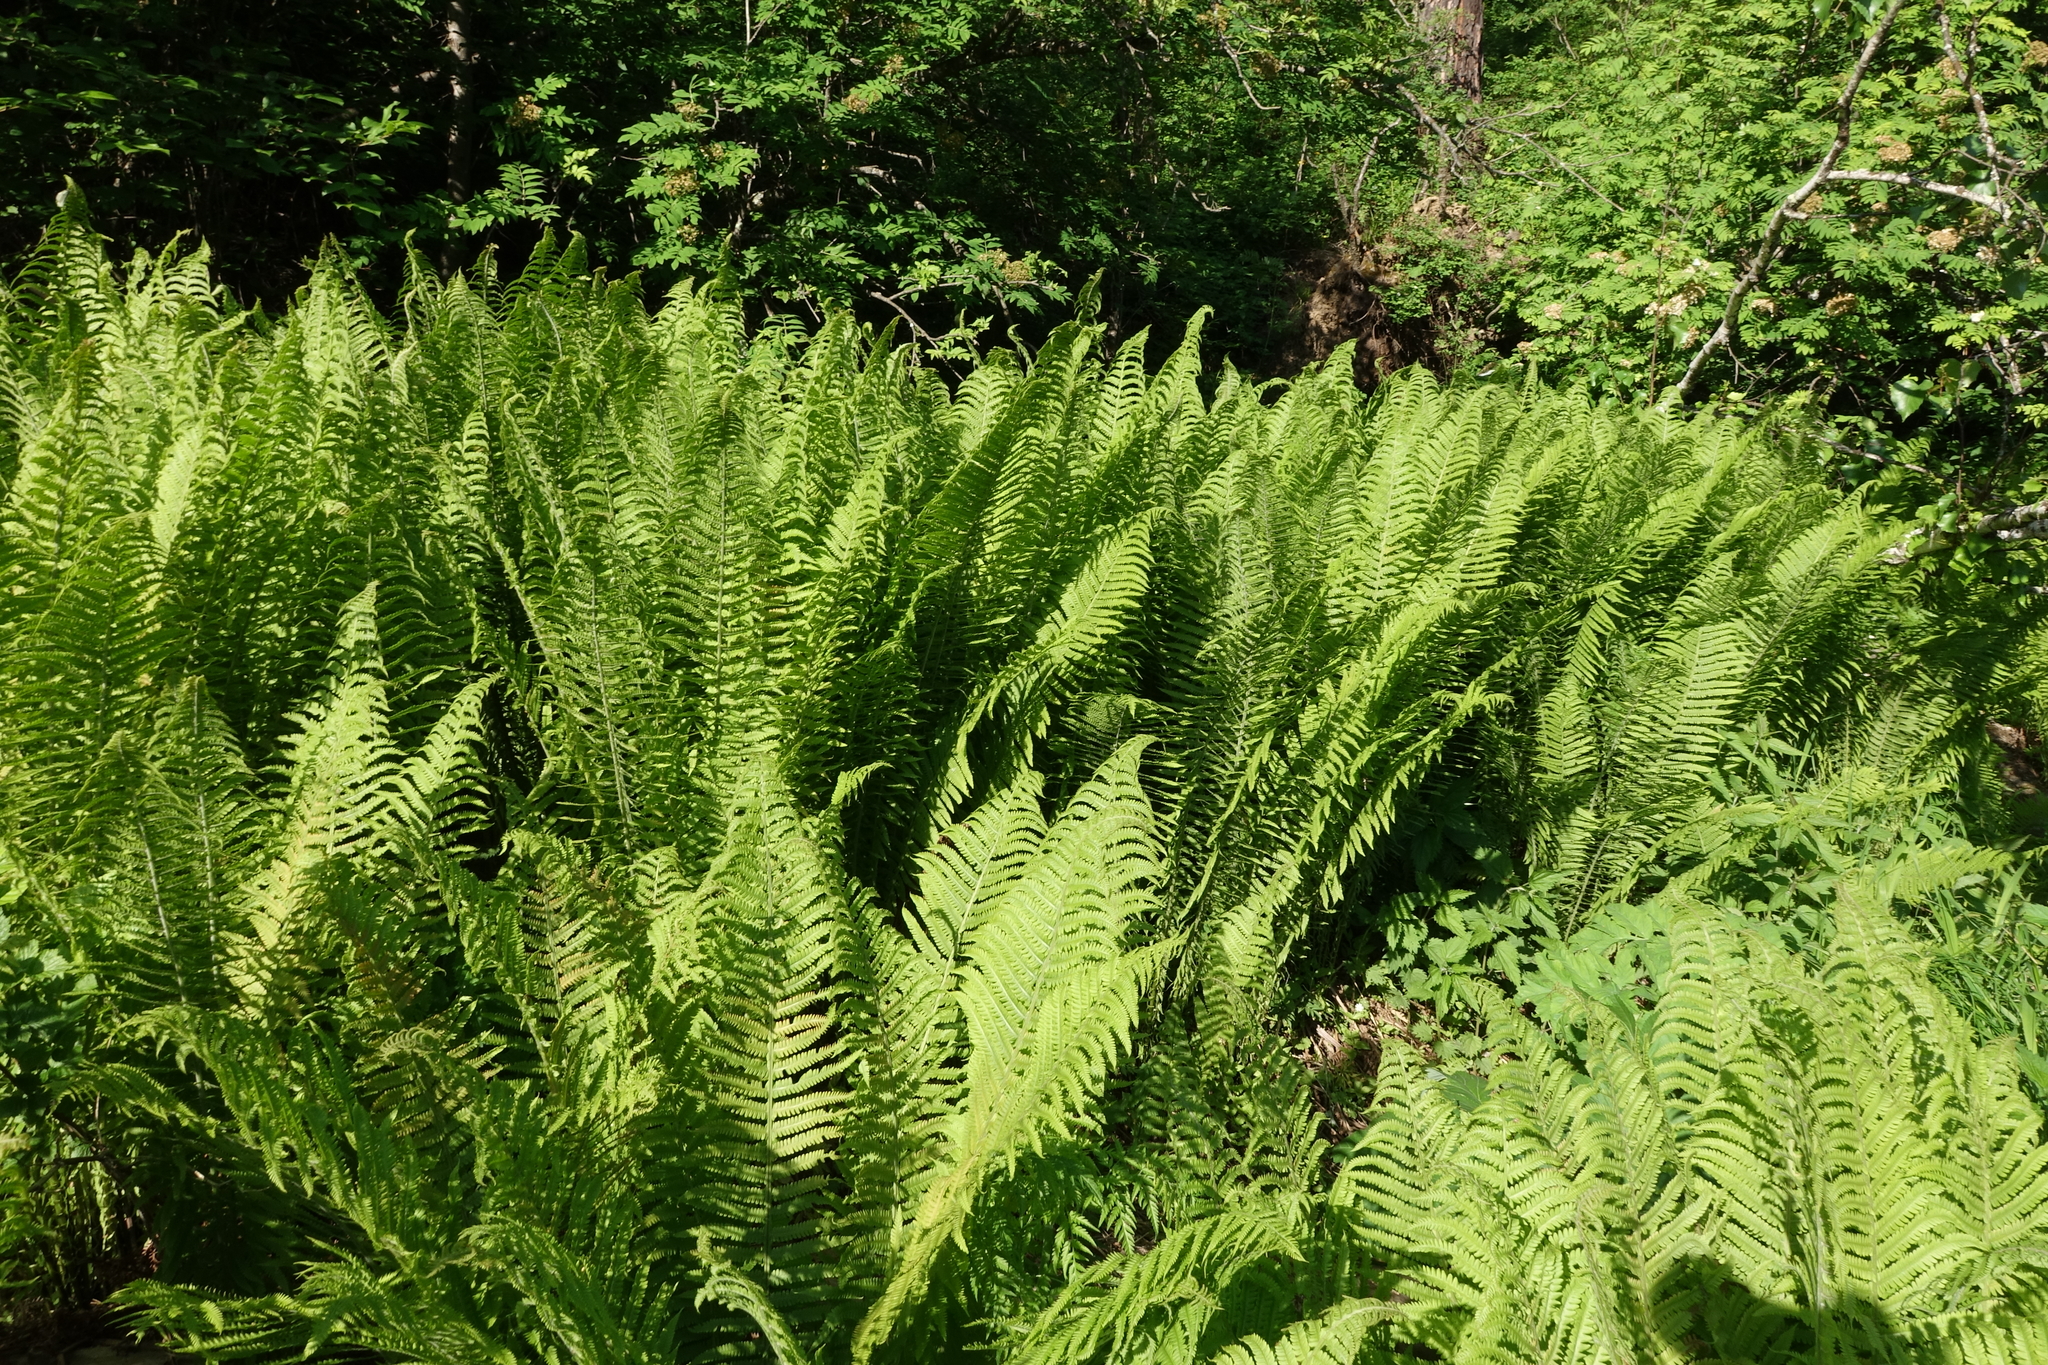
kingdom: Plantae
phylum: Tracheophyta
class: Polypodiopsida
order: Polypodiales
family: Onocleaceae
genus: Matteuccia
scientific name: Matteuccia struthiopteris
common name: Ostrich fern
